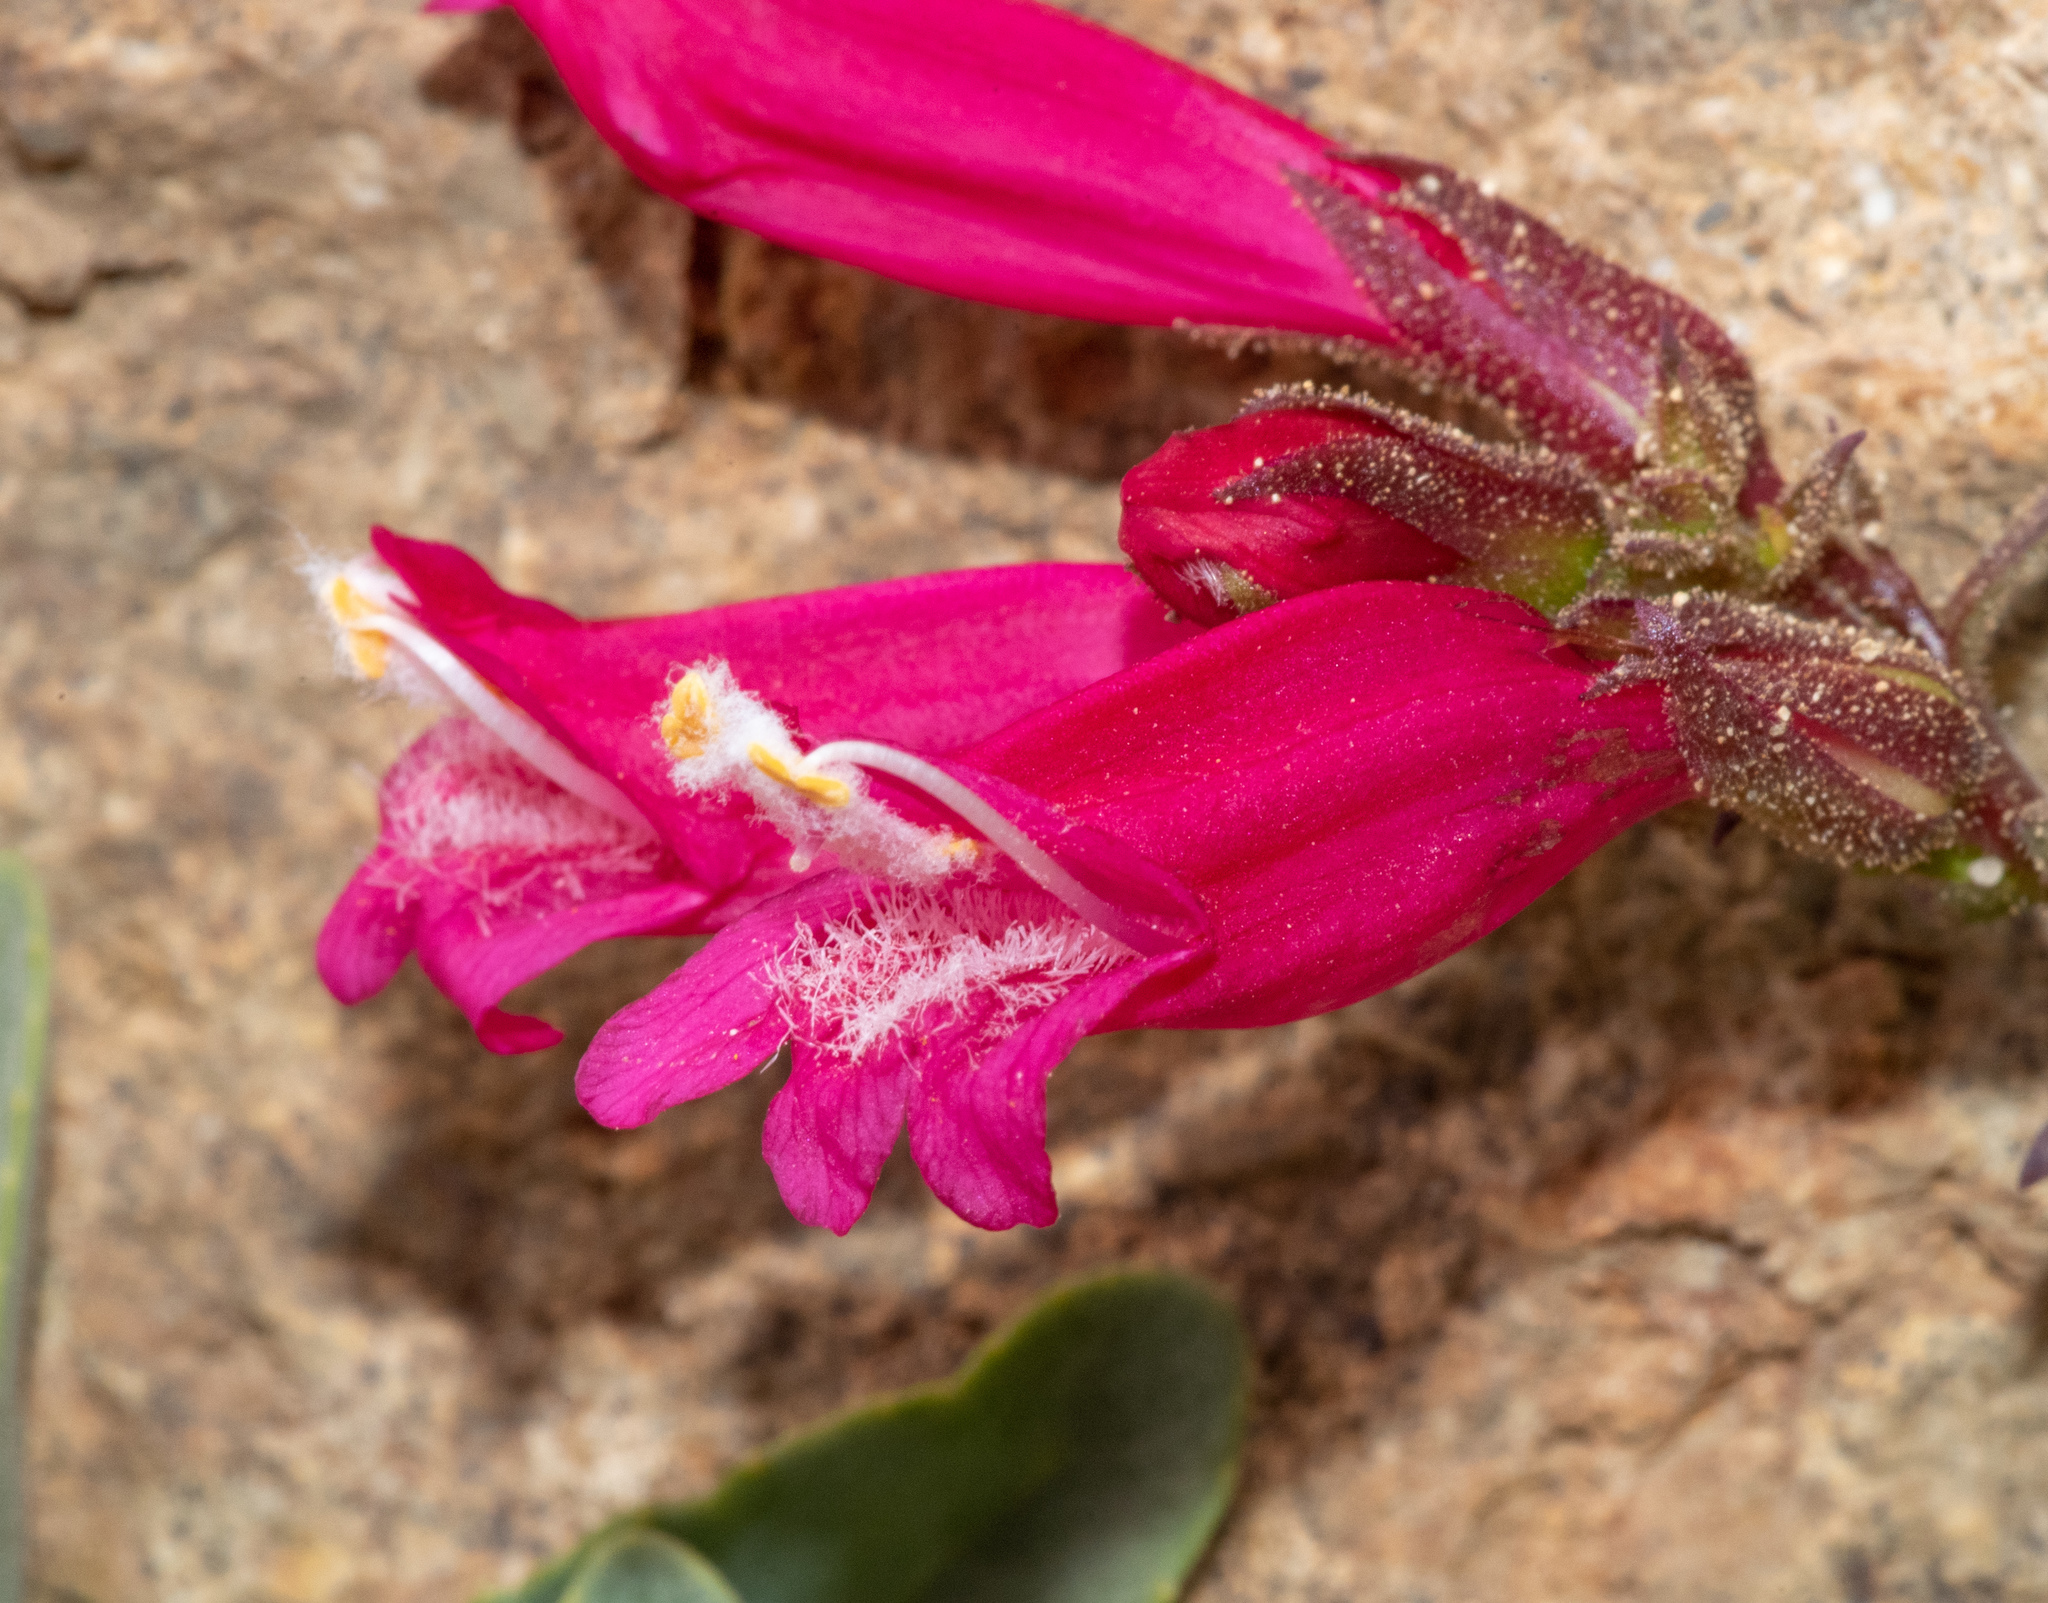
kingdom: Plantae
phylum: Tracheophyta
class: Magnoliopsida
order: Lamiales
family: Plantaginaceae
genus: Penstemon
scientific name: Penstemon newberryi
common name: Mountain-pride
